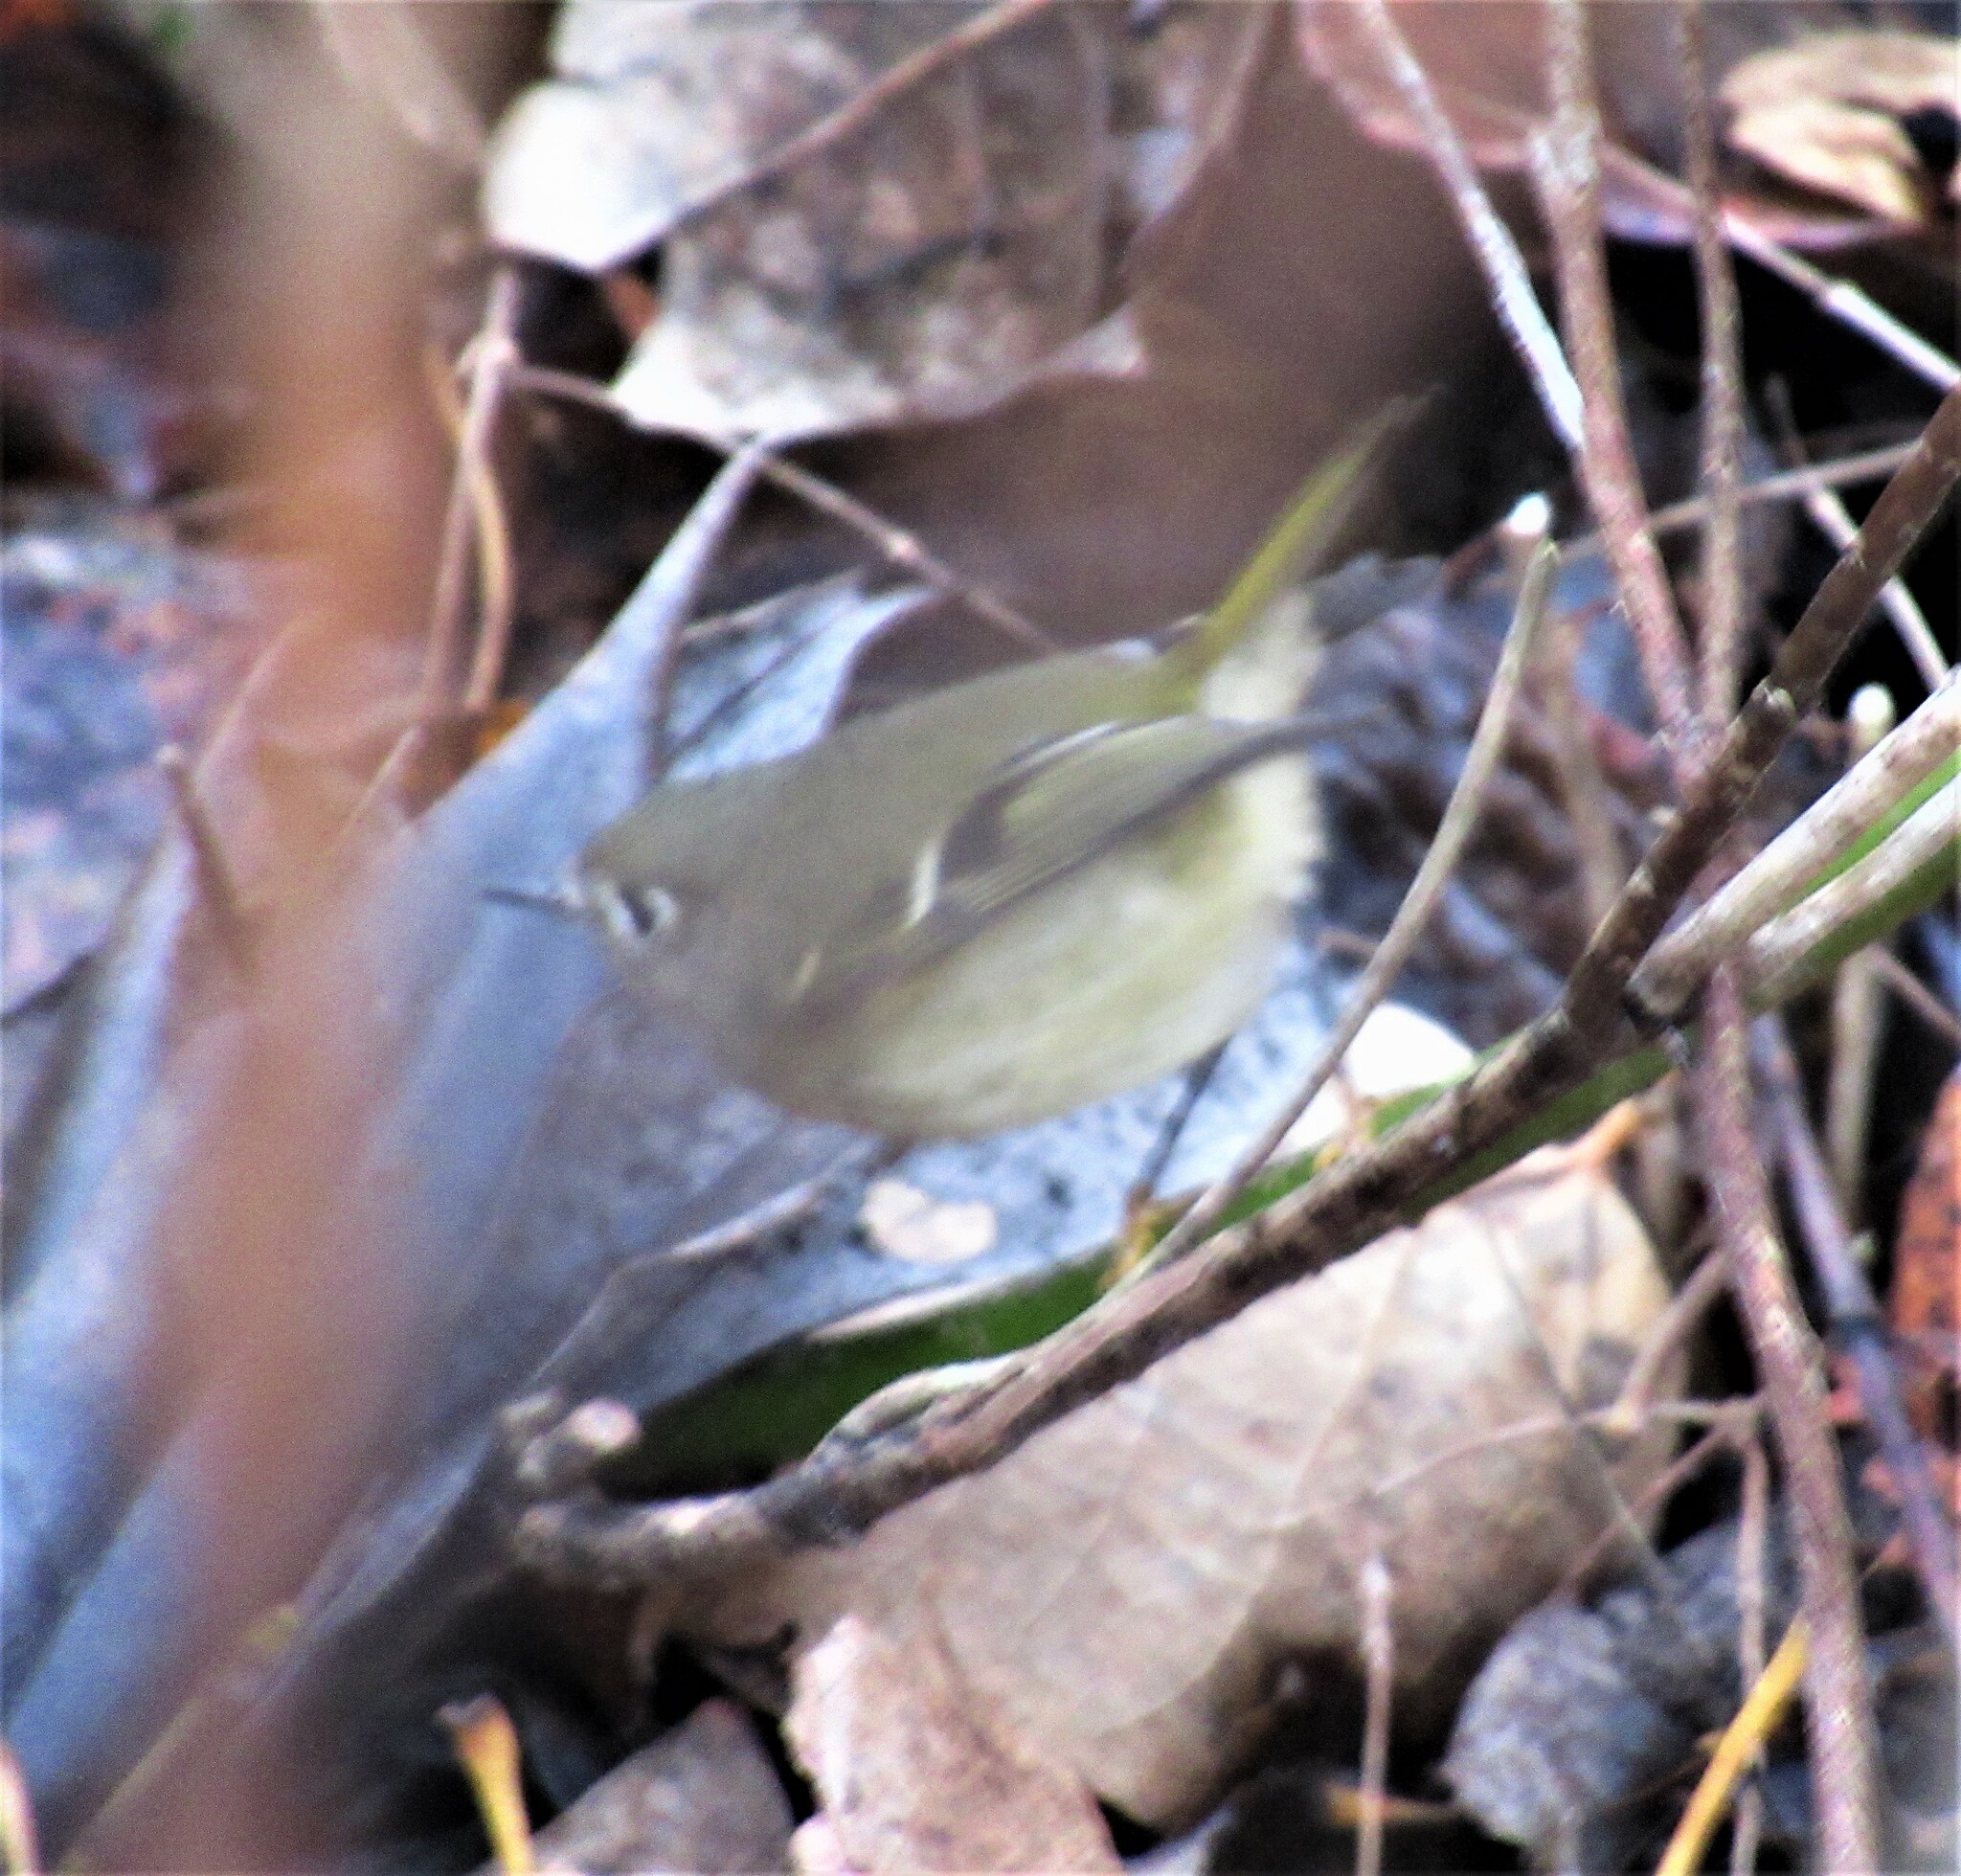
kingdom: Animalia
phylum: Chordata
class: Aves
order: Passeriformes
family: Regulidae
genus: Regulus
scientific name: Regulus calendula
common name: Ruby-crowned kinglet
